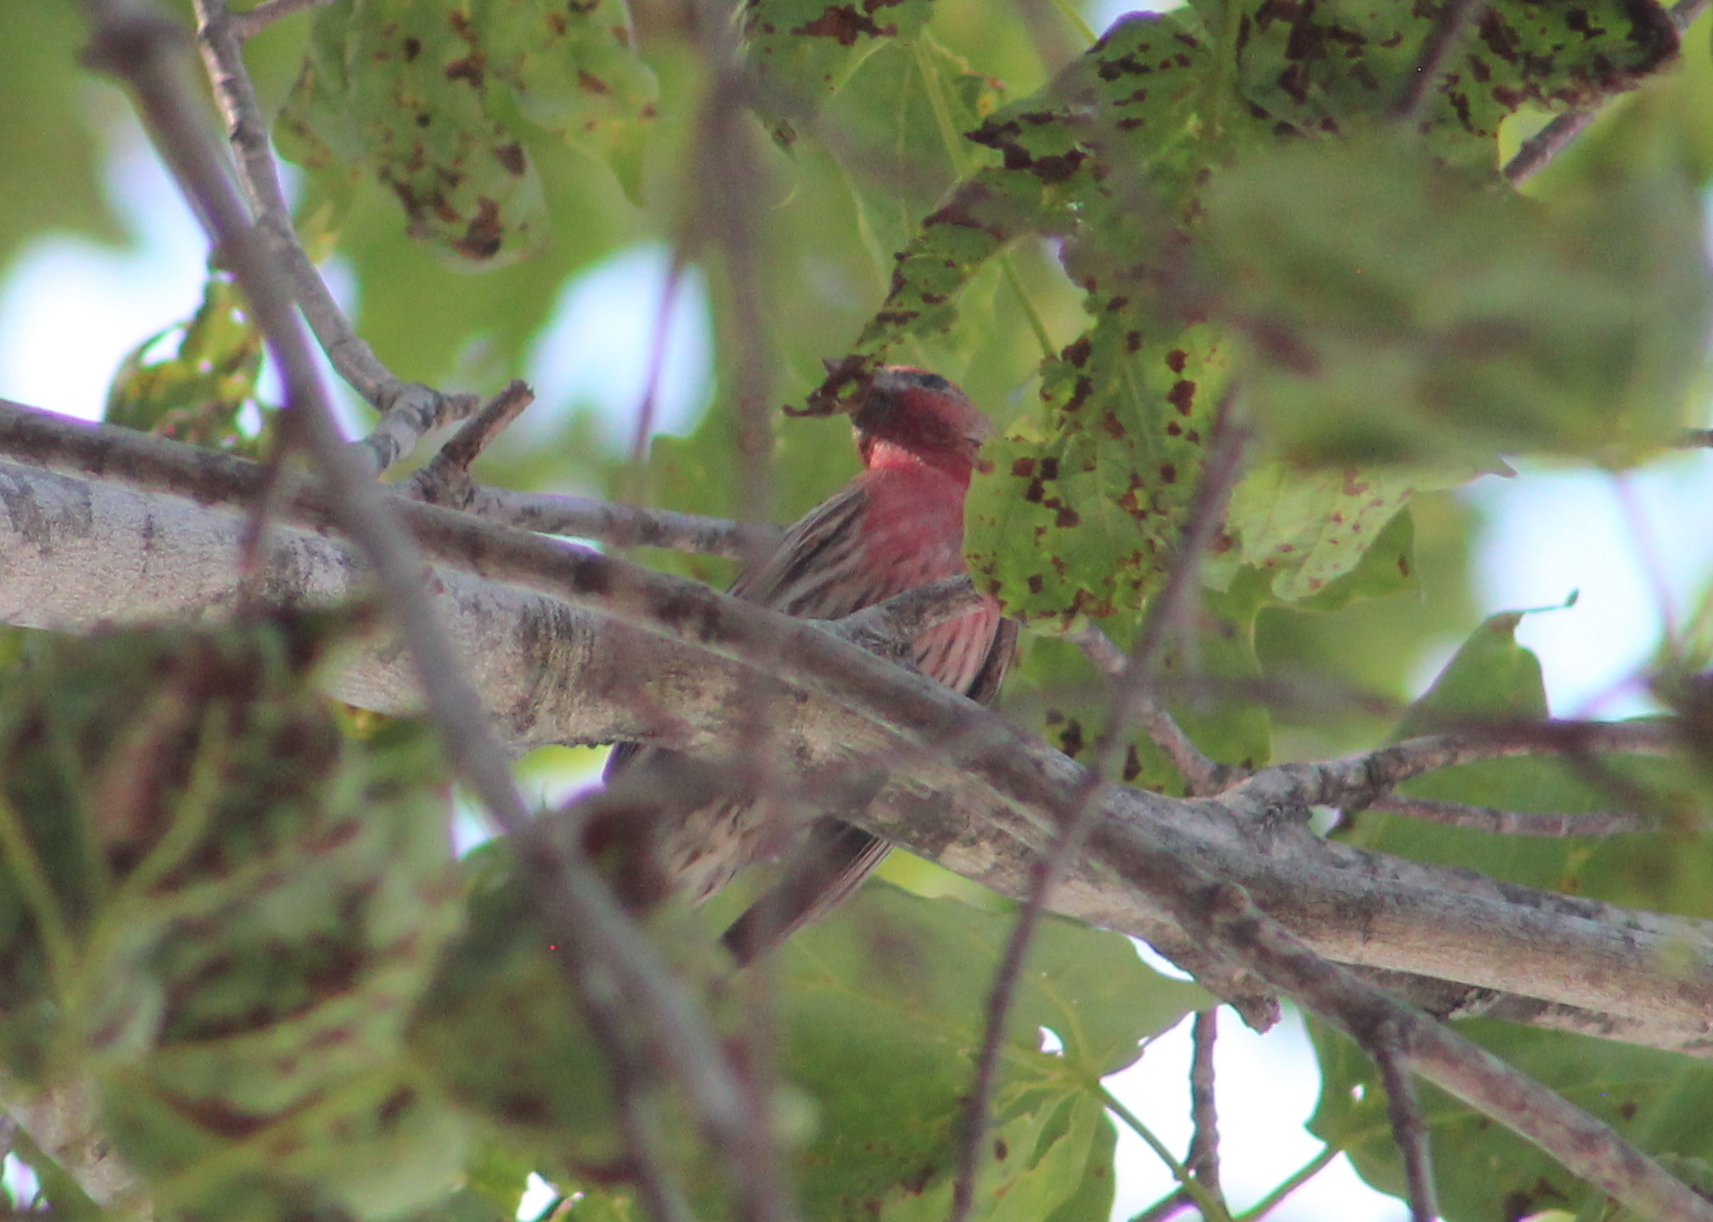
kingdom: Animalia
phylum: Chordata
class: Aves
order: Passeriformes
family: Fringillidae
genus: Haemorhous
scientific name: Haemorhous mexicanus
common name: House finch
